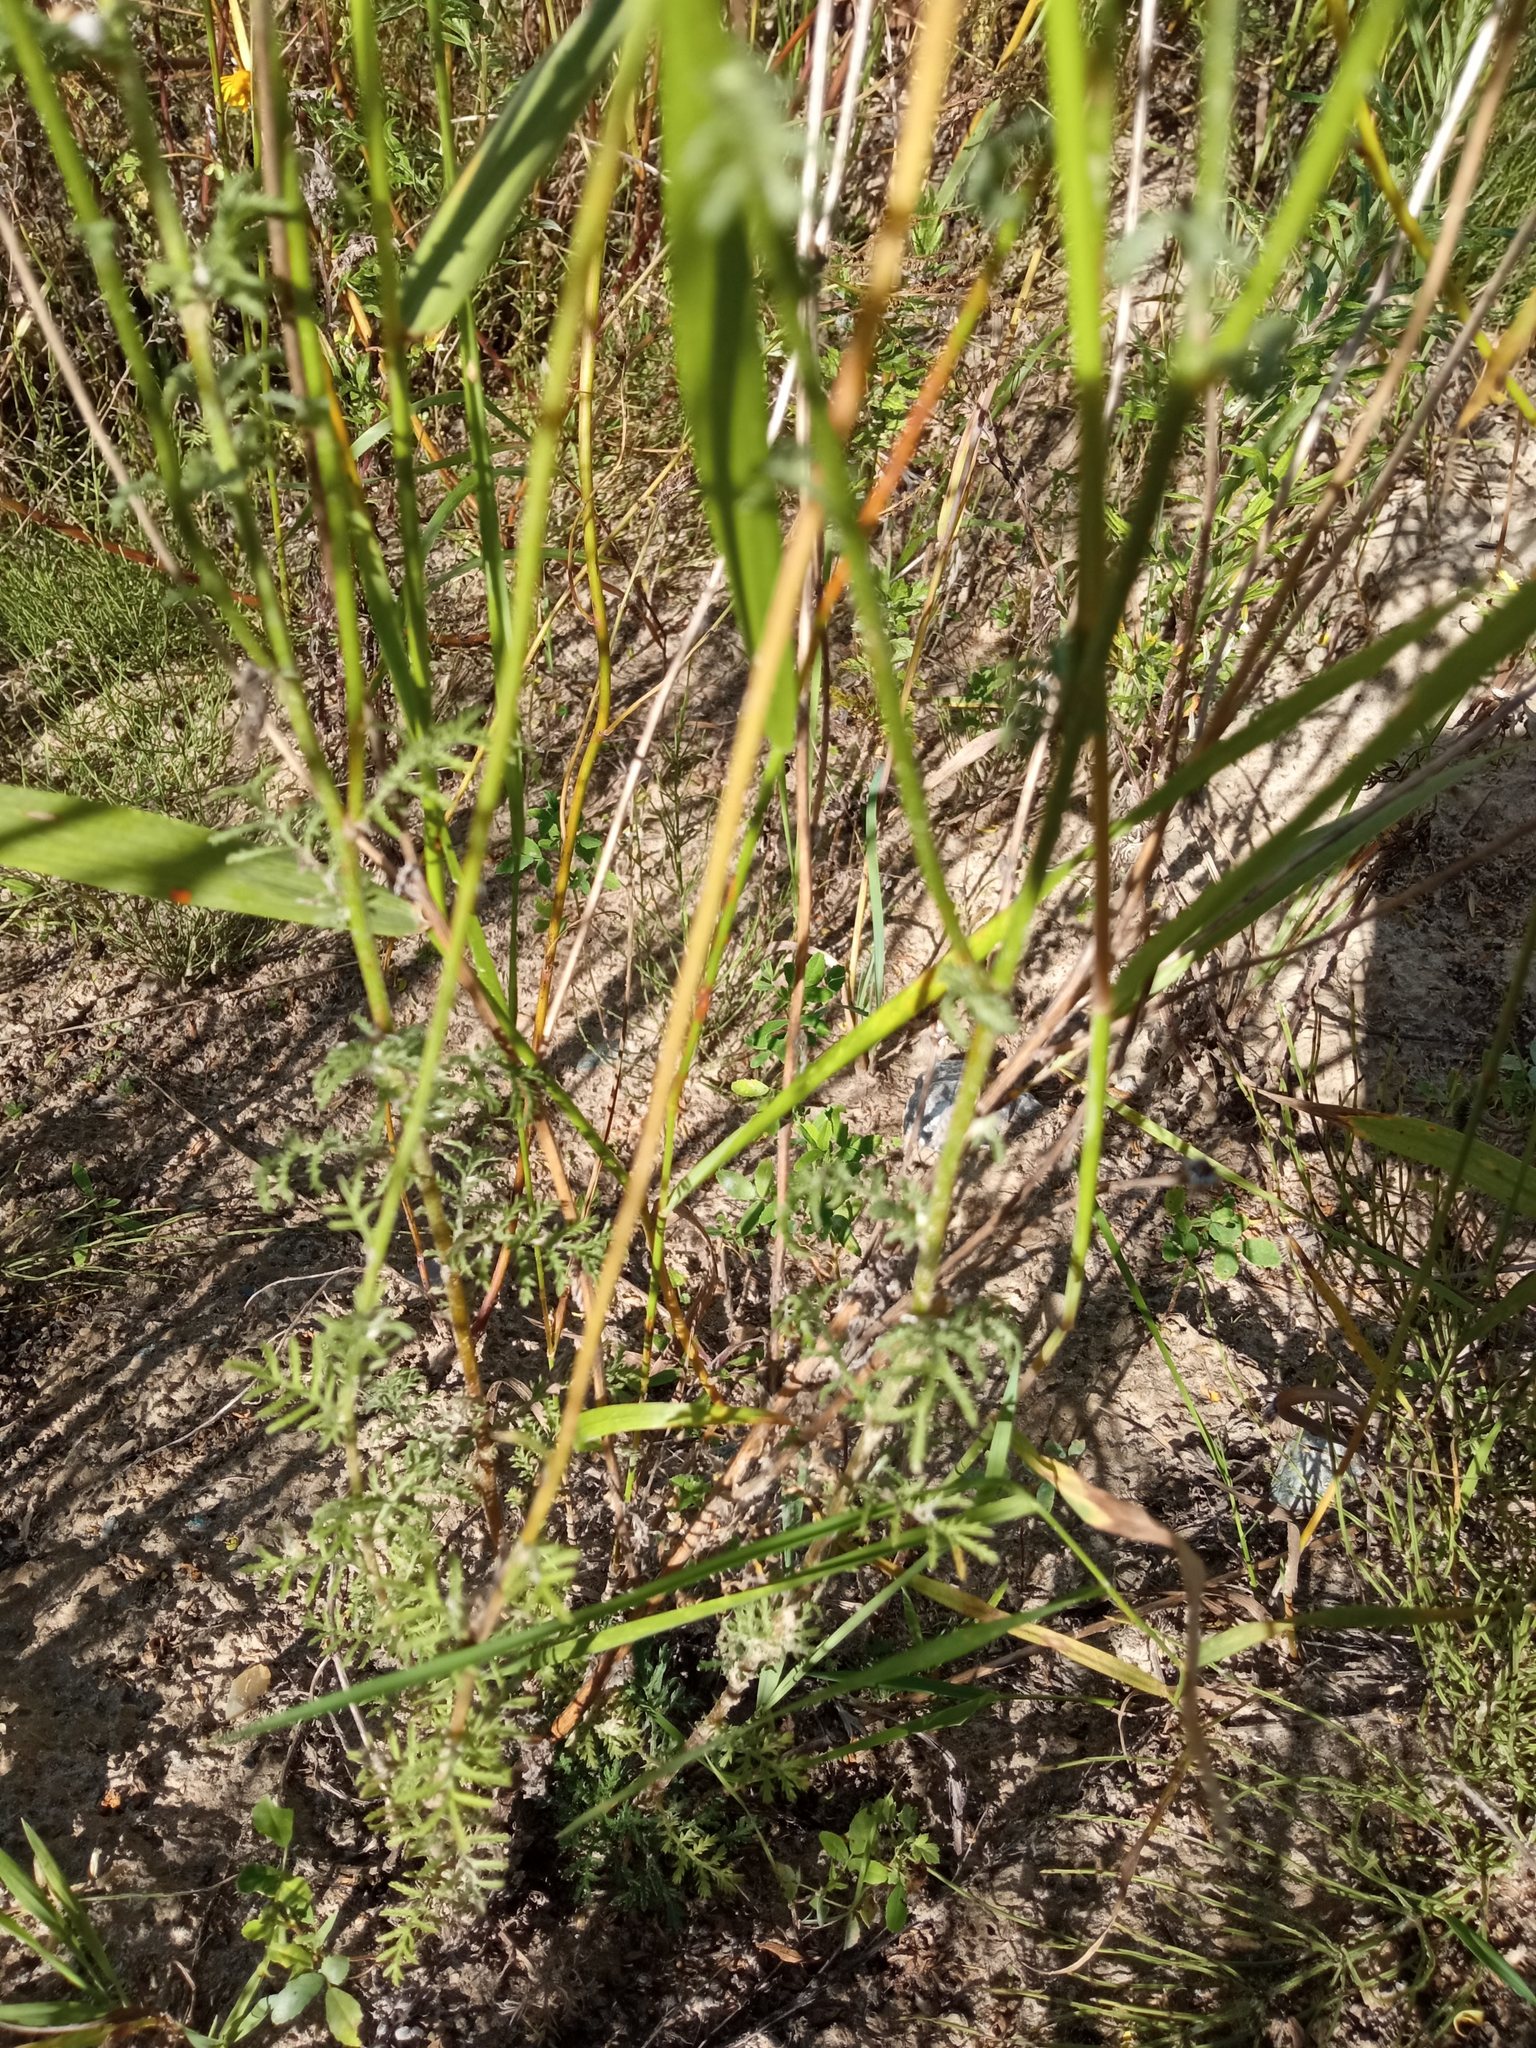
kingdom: Plantae
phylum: Tracheophyta
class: Magnoliopsida
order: Asterales
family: Asteraceae
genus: Cota
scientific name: Cota tinctoria
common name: Golden chamomile
